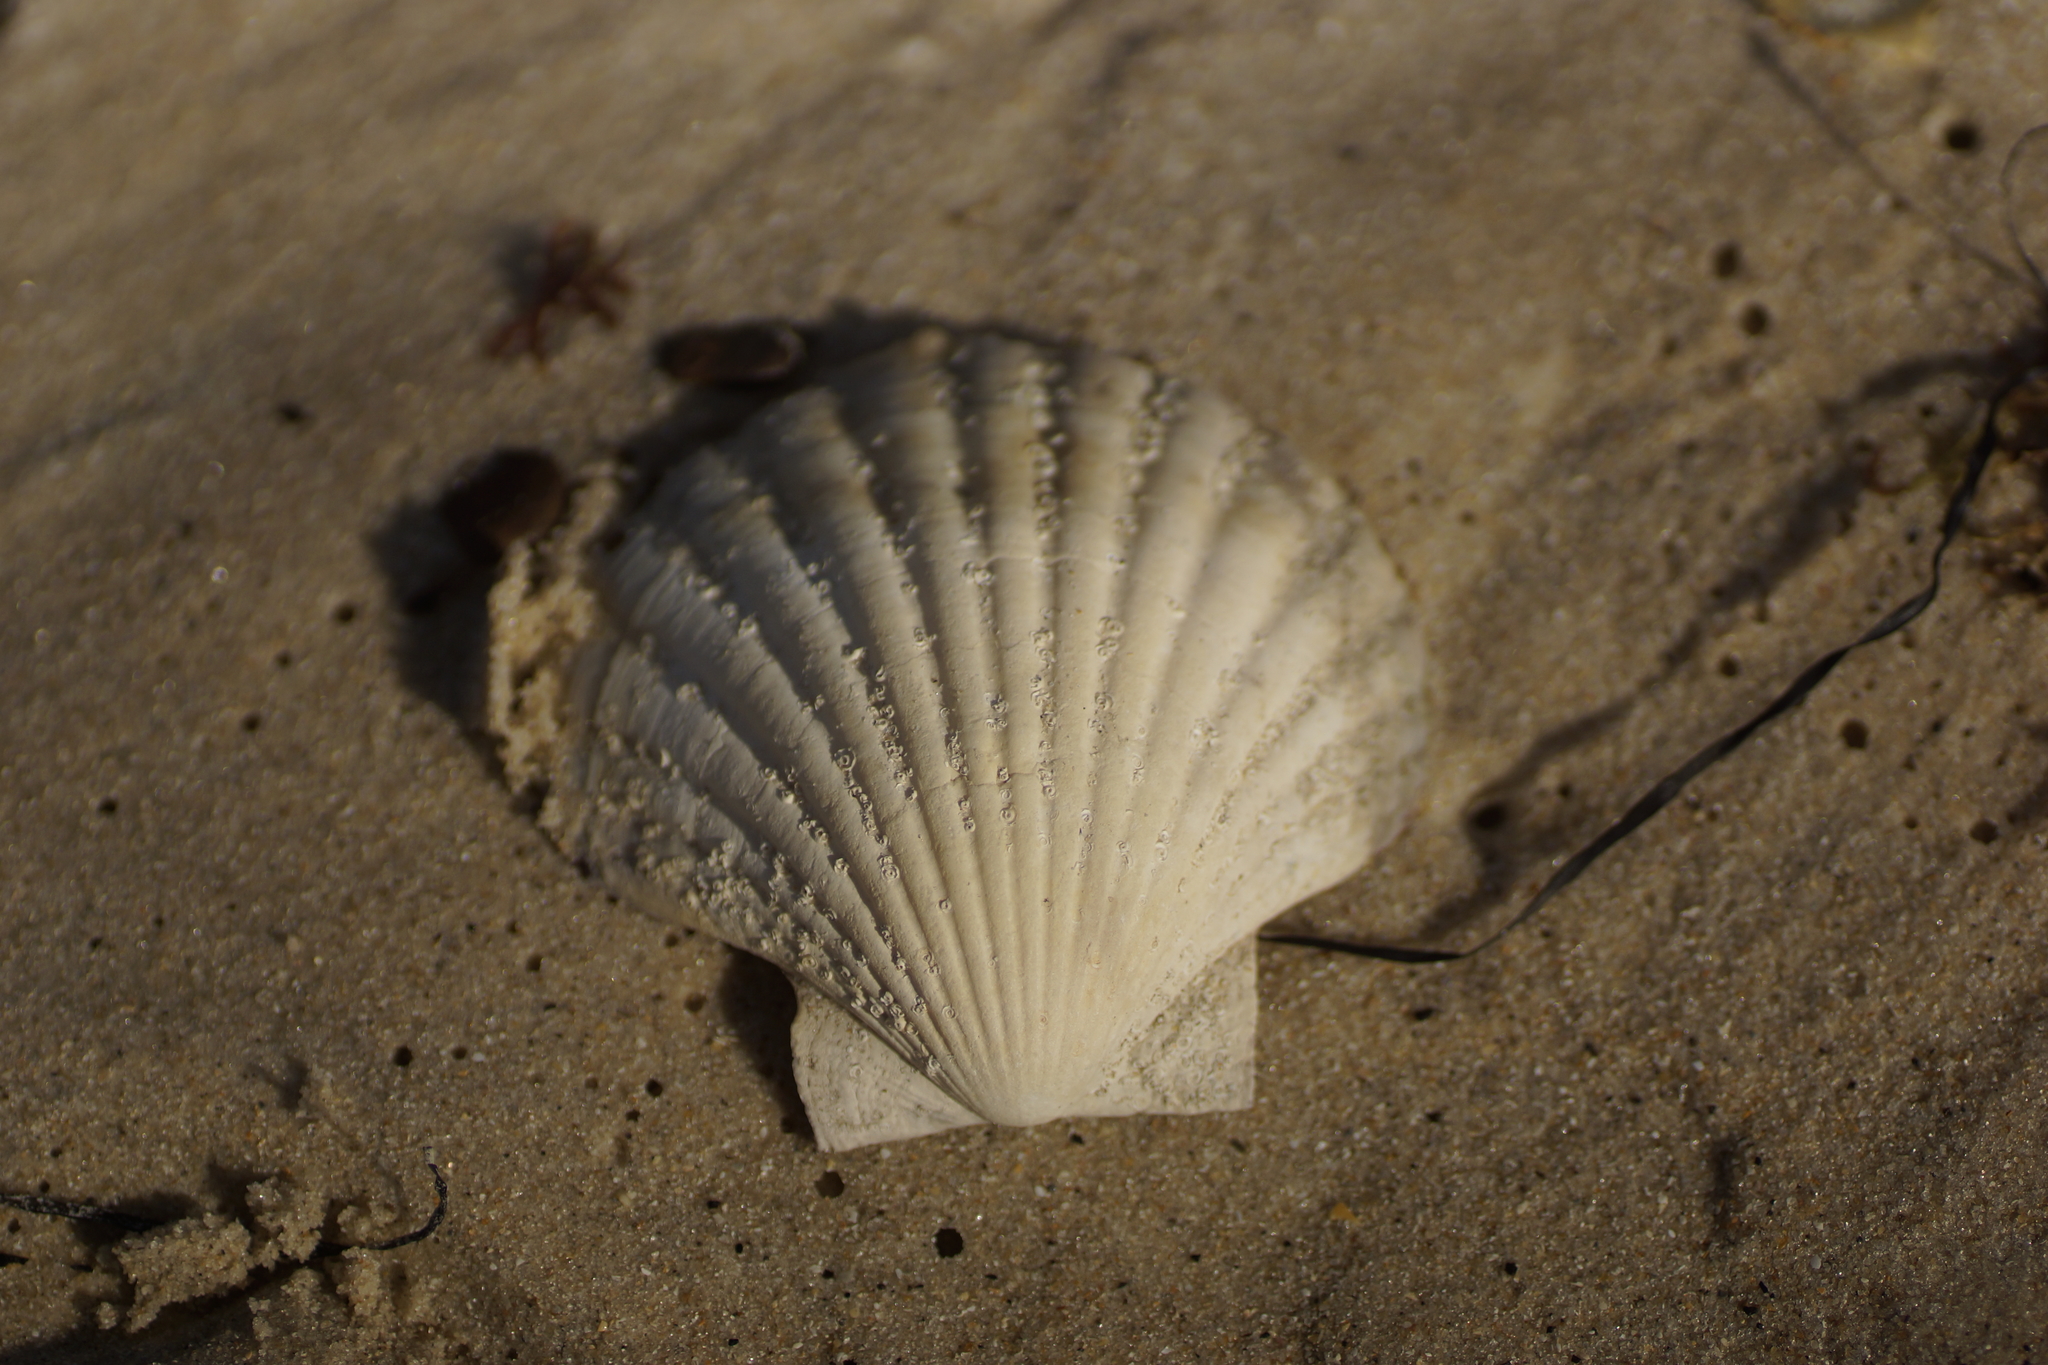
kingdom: Animalia
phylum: Mollusca
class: Bivalvia
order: Pectinida
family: Pectinidae
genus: Pecten
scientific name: Pecten fumatus
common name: Australian scallop
